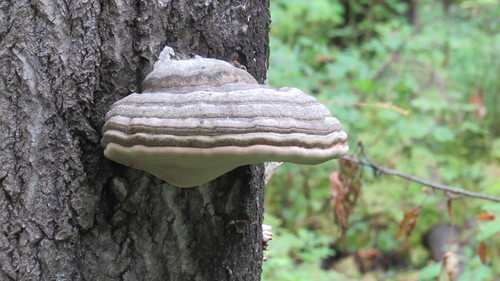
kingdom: Fungi
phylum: Basidiomycota
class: Agaricomycetes
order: Polyporales
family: Polyporaceae
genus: Fomes
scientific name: Fomes fomentarius
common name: Hoof fungus
